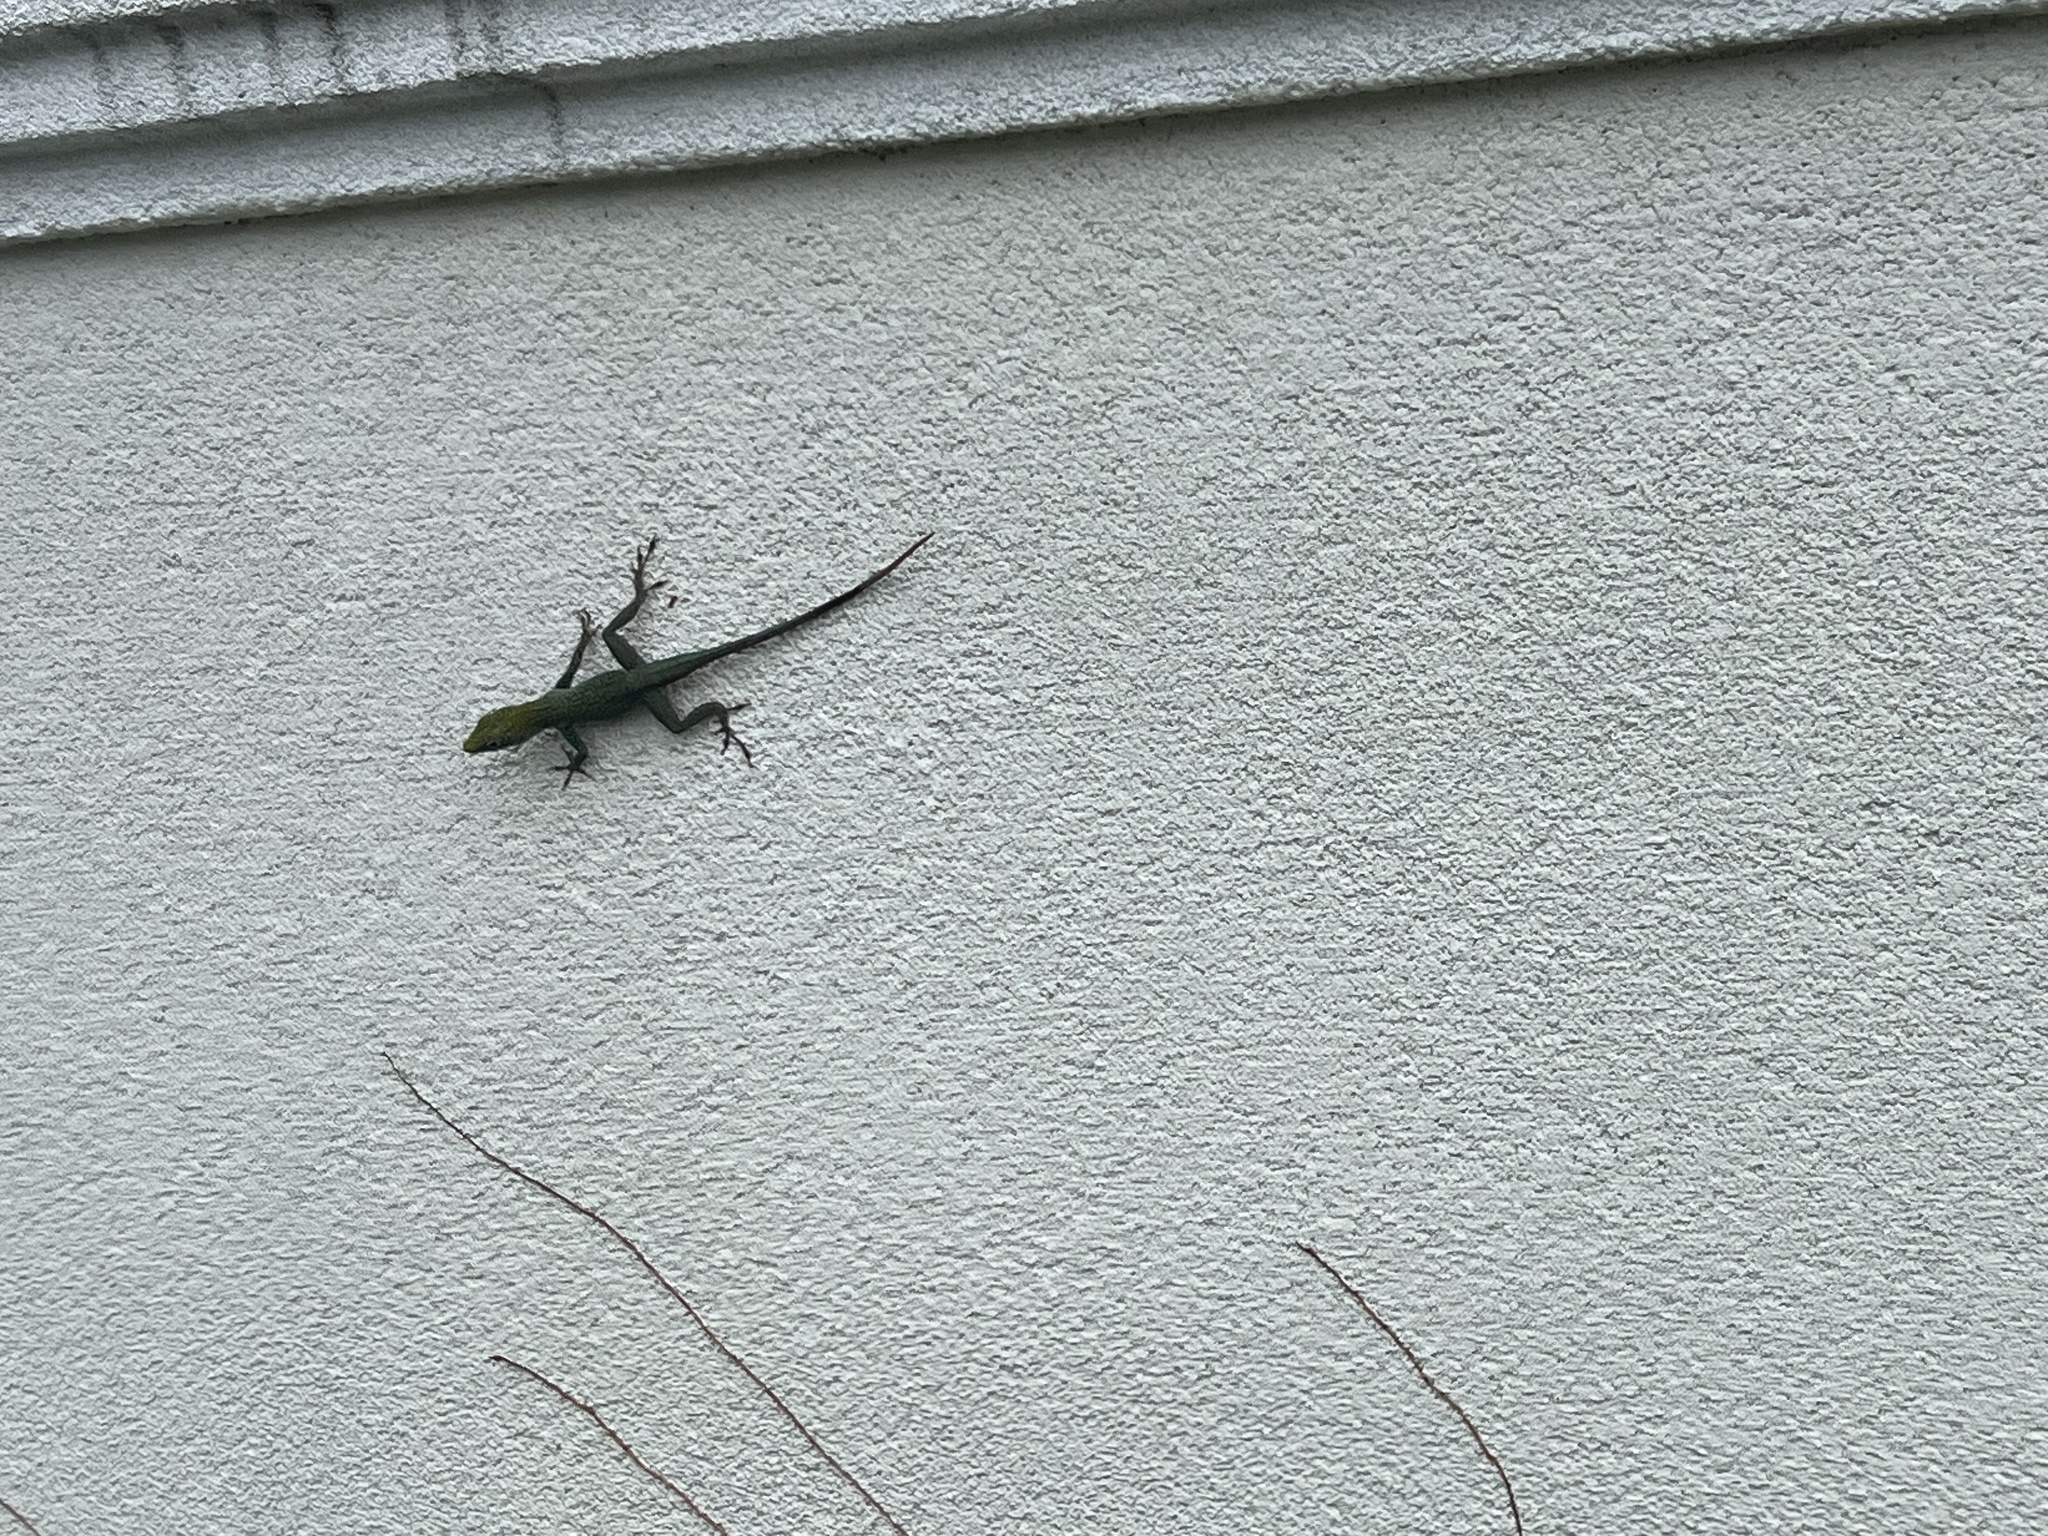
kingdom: Animalia
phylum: Chordata
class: Squamata
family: Dactyloidae
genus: Anolis
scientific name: Anolis conspersus
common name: Grand cayman anole
